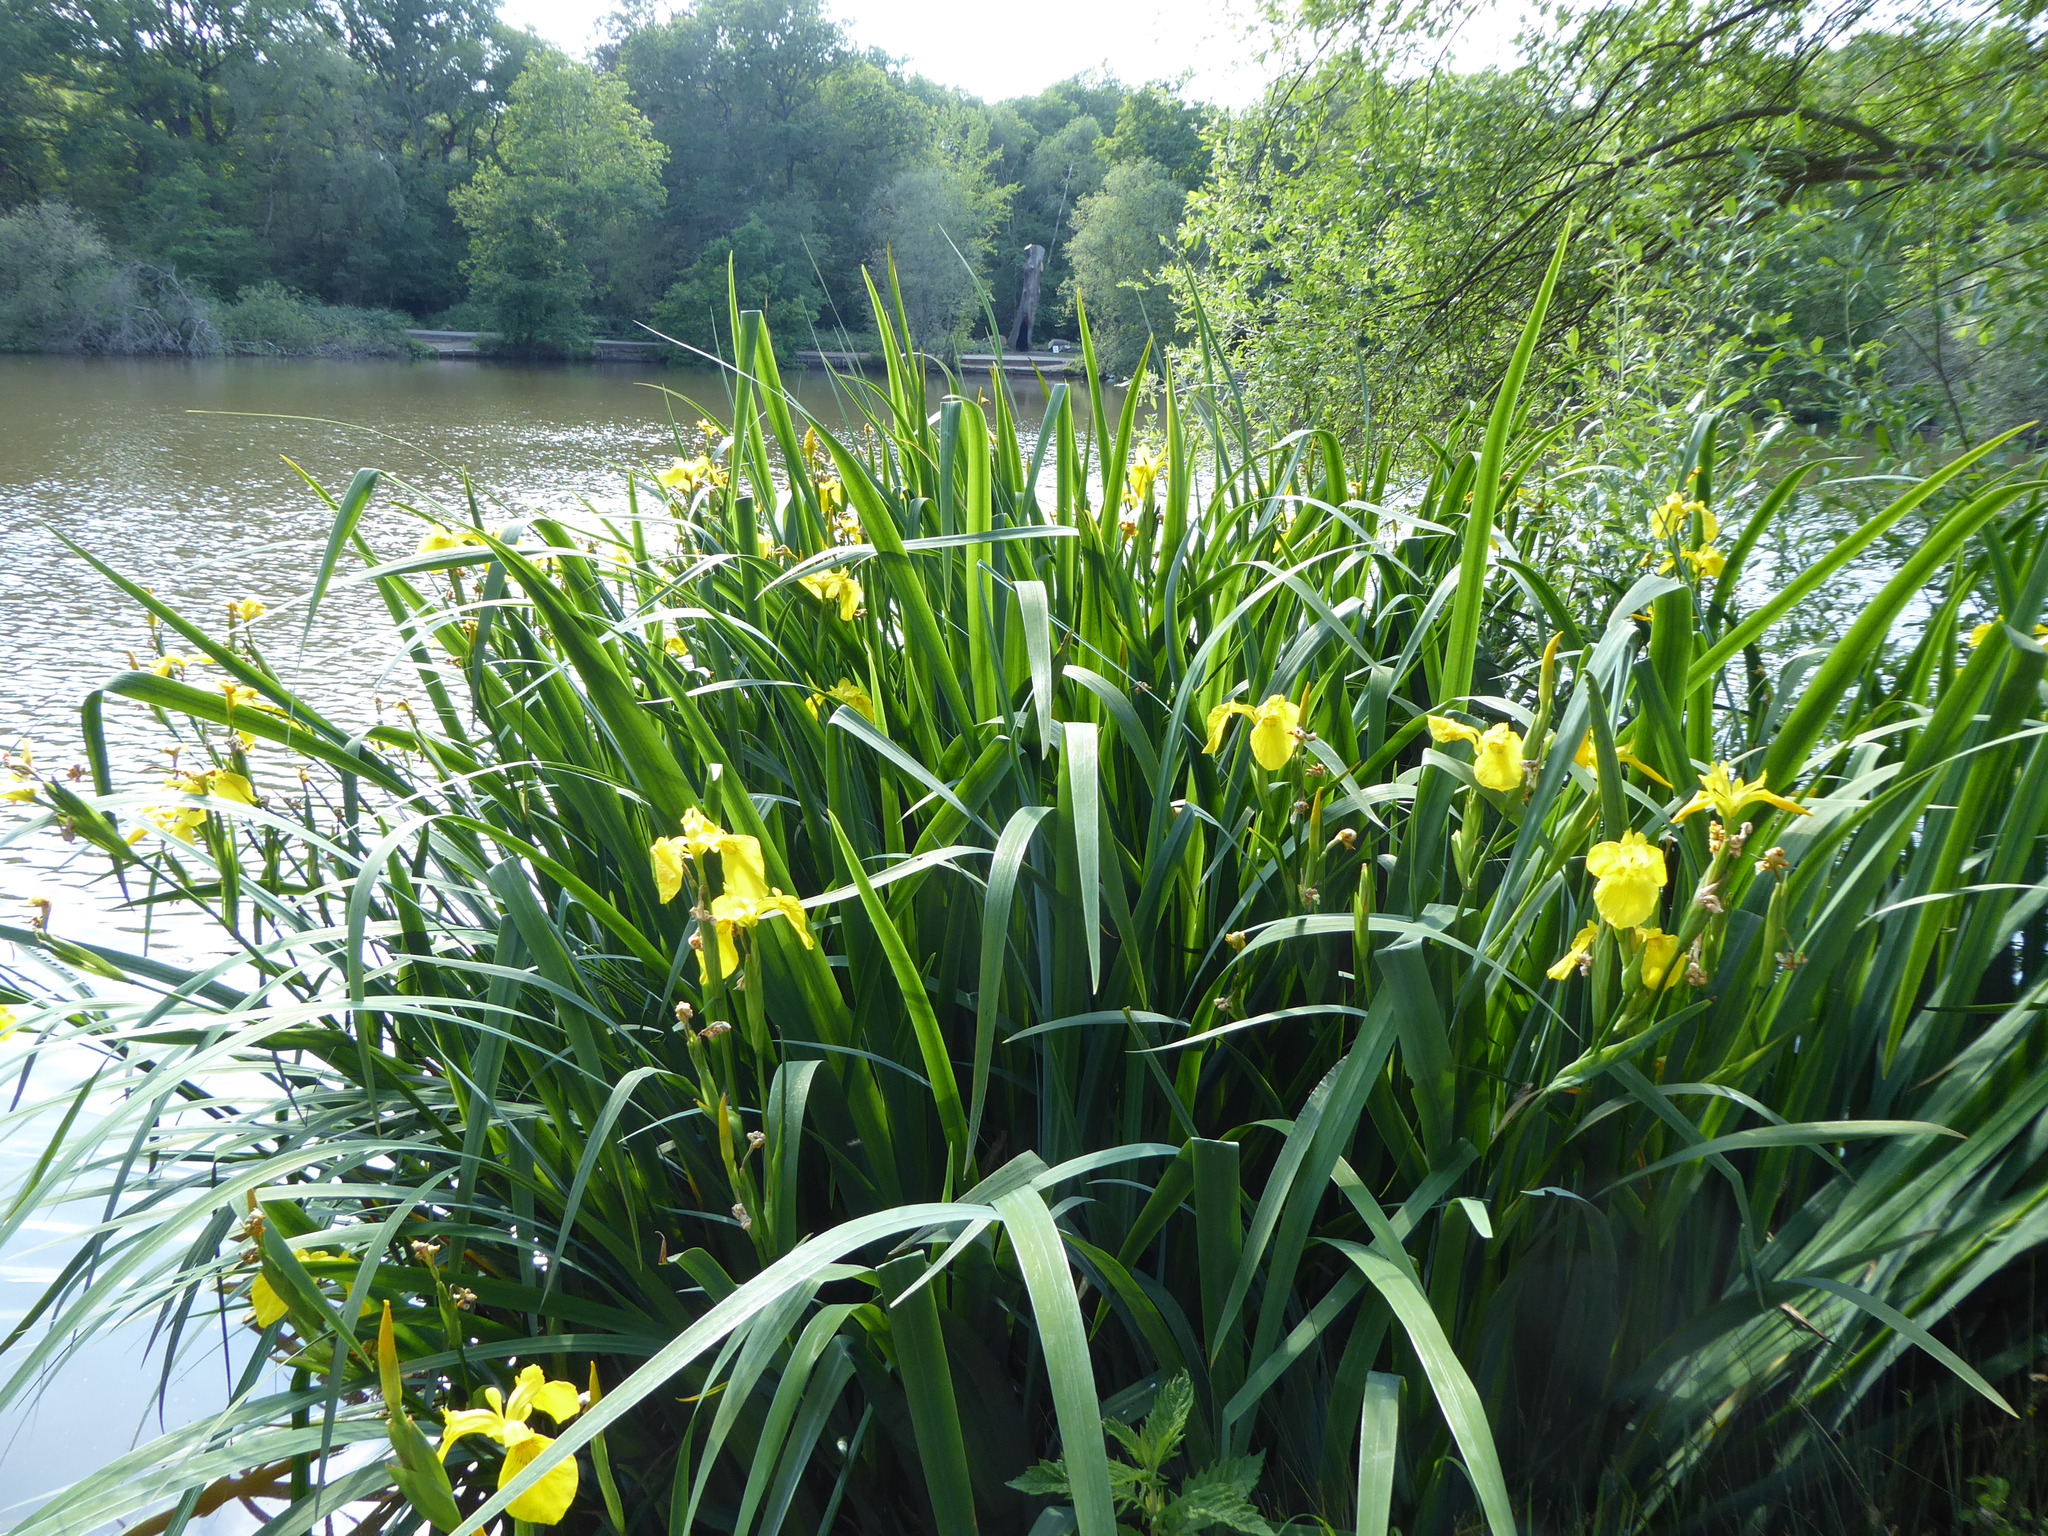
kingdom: Plantae
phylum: Tracheophyta
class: Liliopsida
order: Asparagales
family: Iridaceae
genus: Iris
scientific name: Iris pseudacorus
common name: Yellow flag
